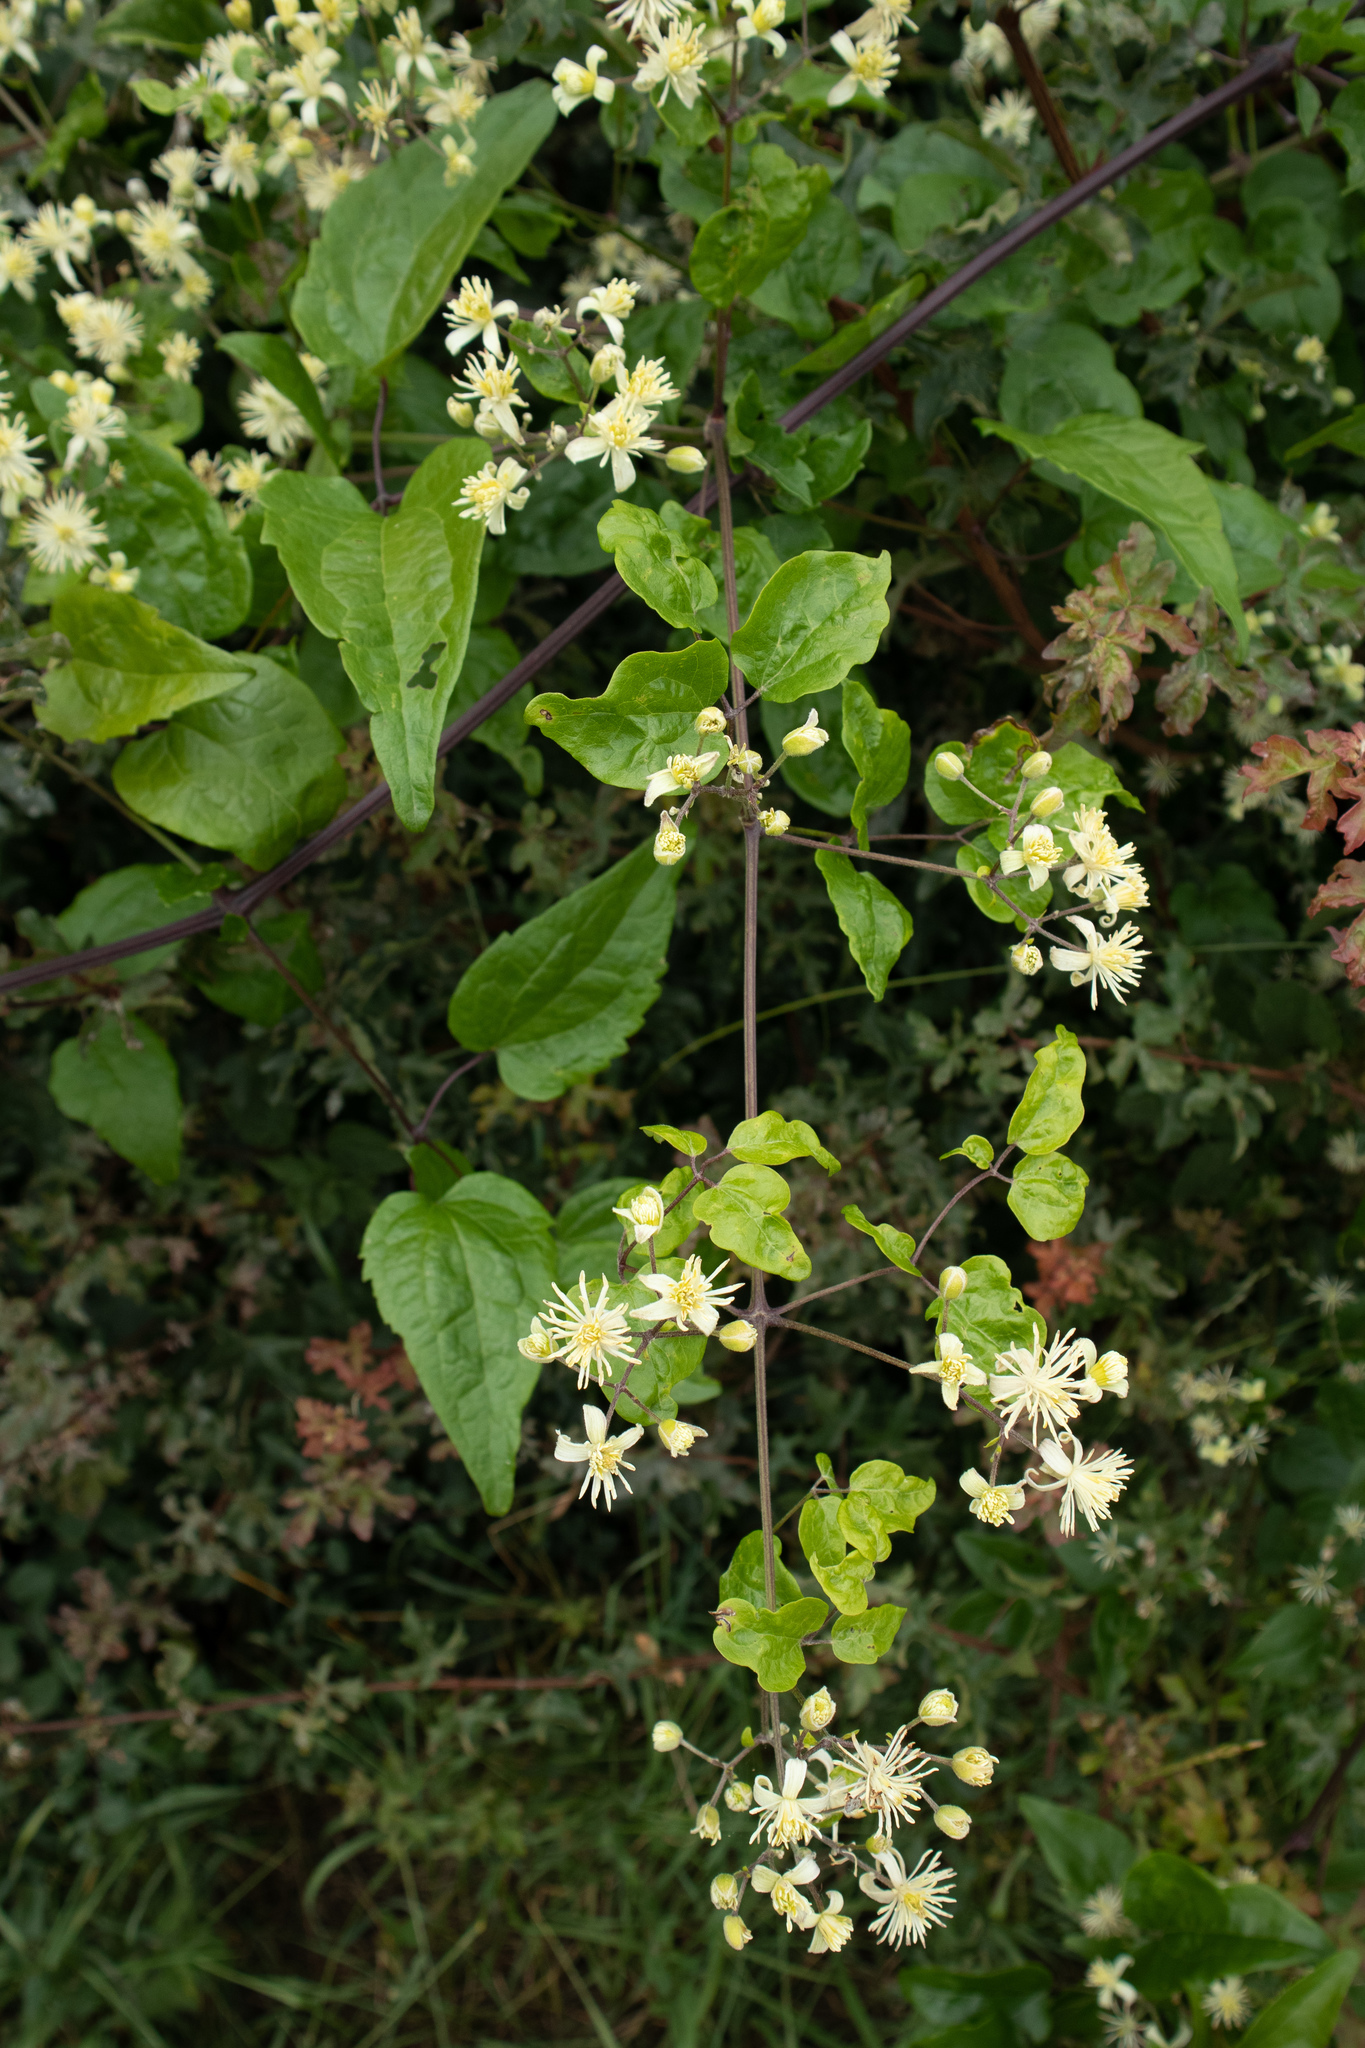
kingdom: Plantae
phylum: Tracheophyta
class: Magnoliopsida
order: Ranunculales
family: Ranunculaceae
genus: Clematis
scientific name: Clematis vitalba
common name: Evergreen clematis
